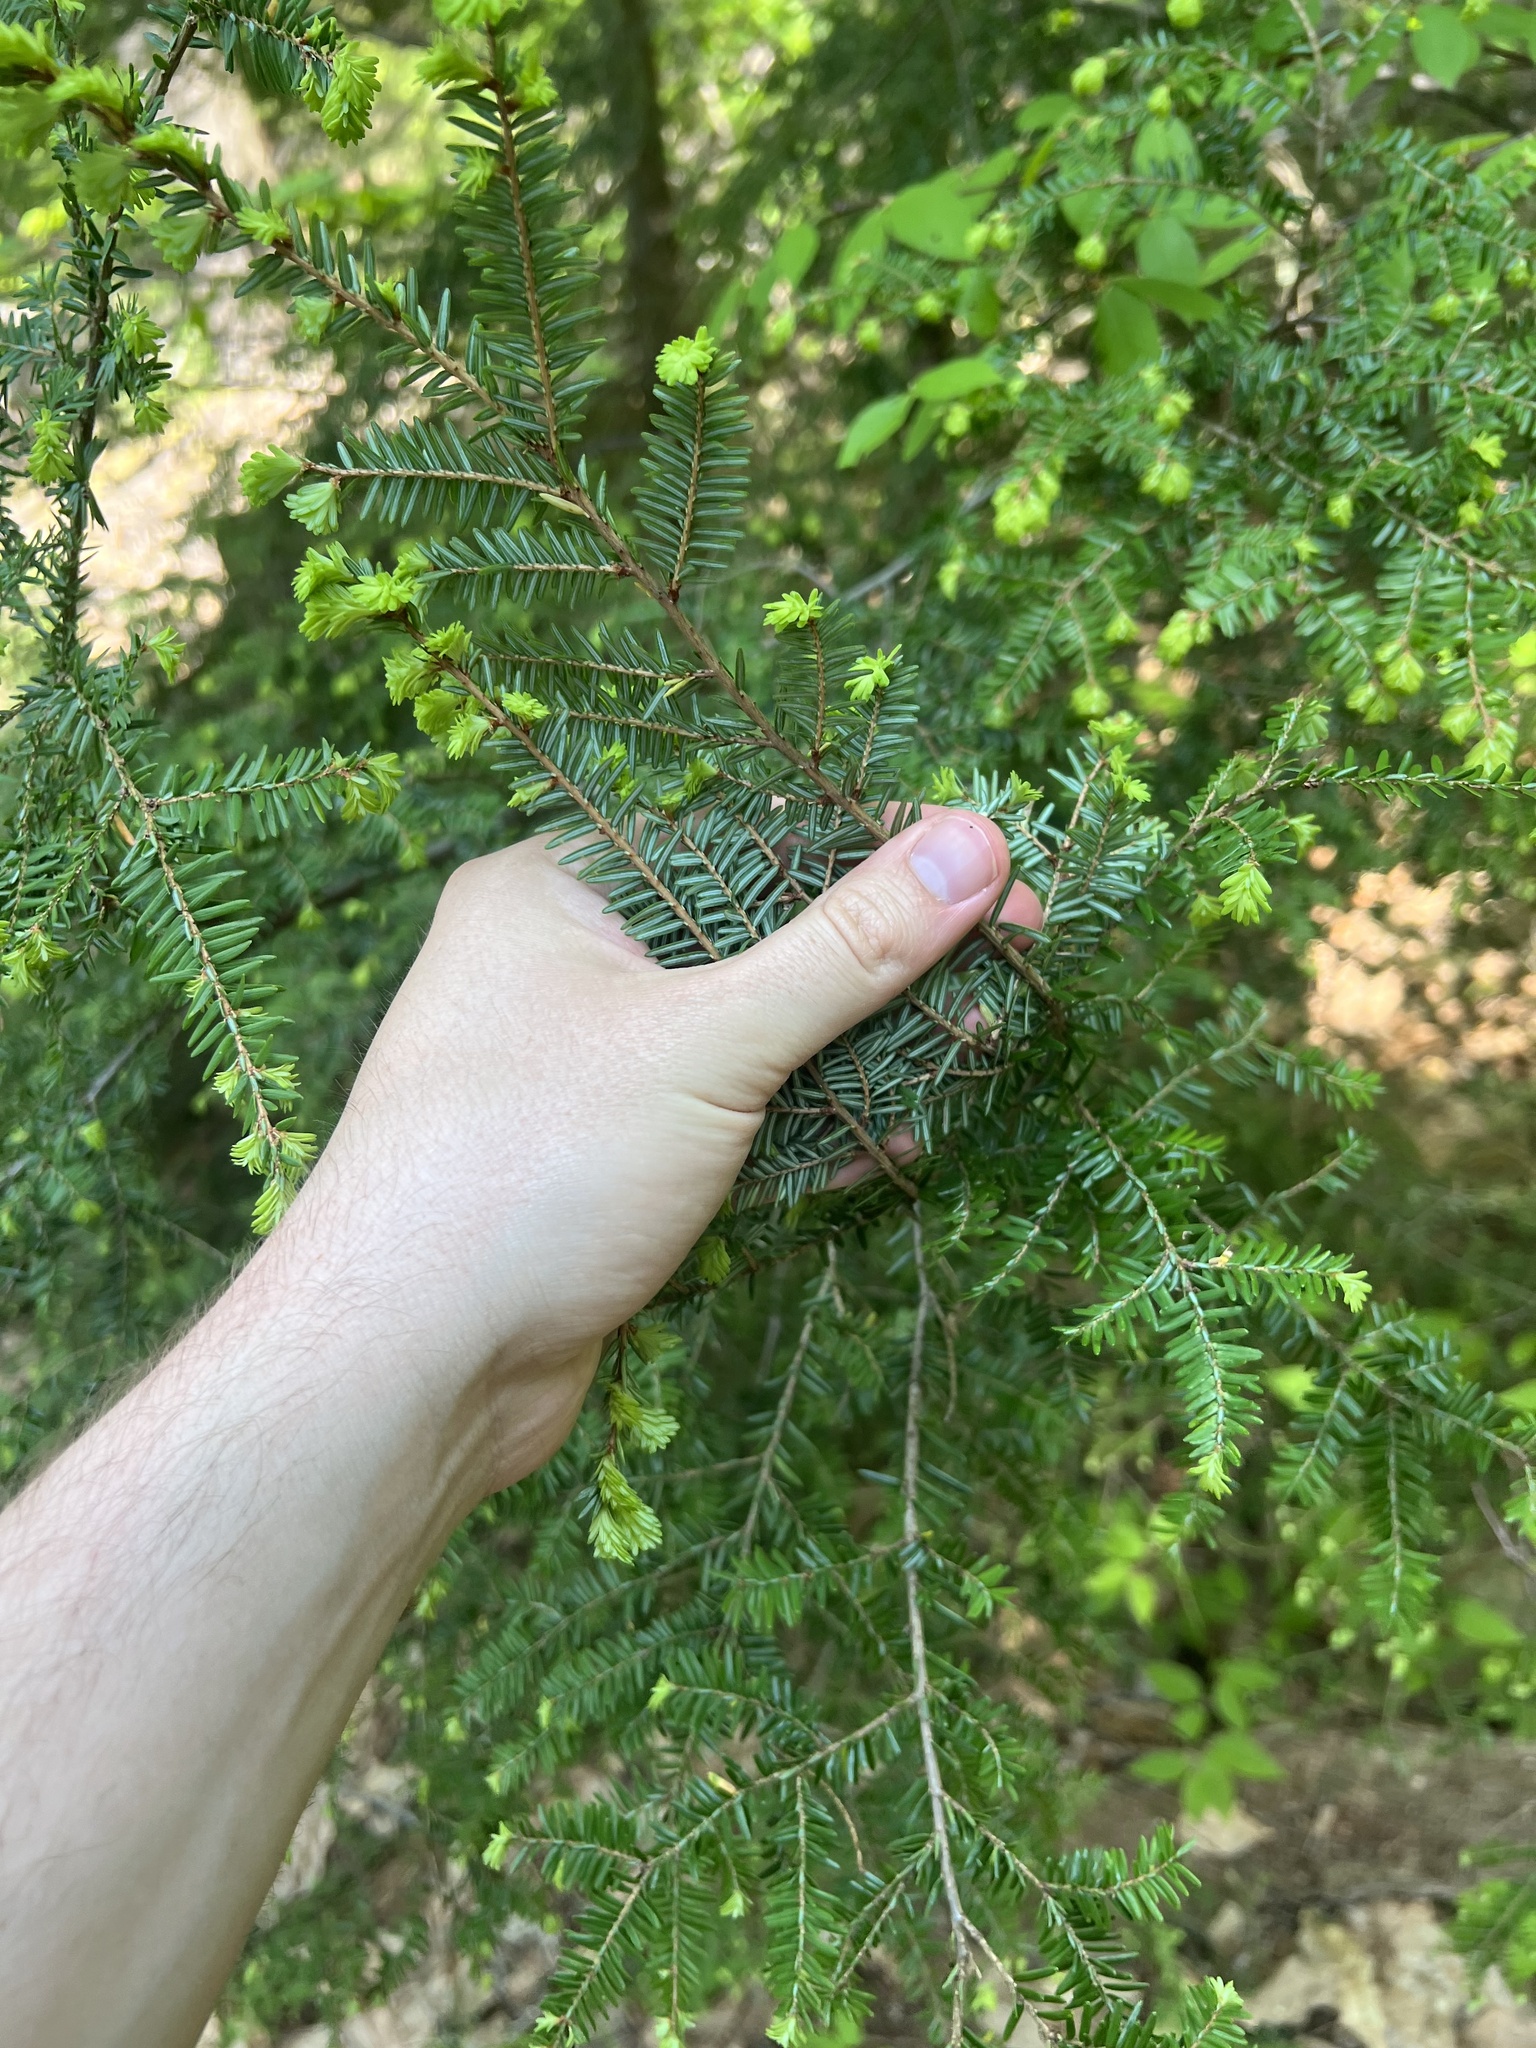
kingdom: Plantae
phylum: Tracheophyta
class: Pinopsida
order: Pinales
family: Pinaceae
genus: Tsuga
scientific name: Tsuga canadensis
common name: Eastern hemlock
